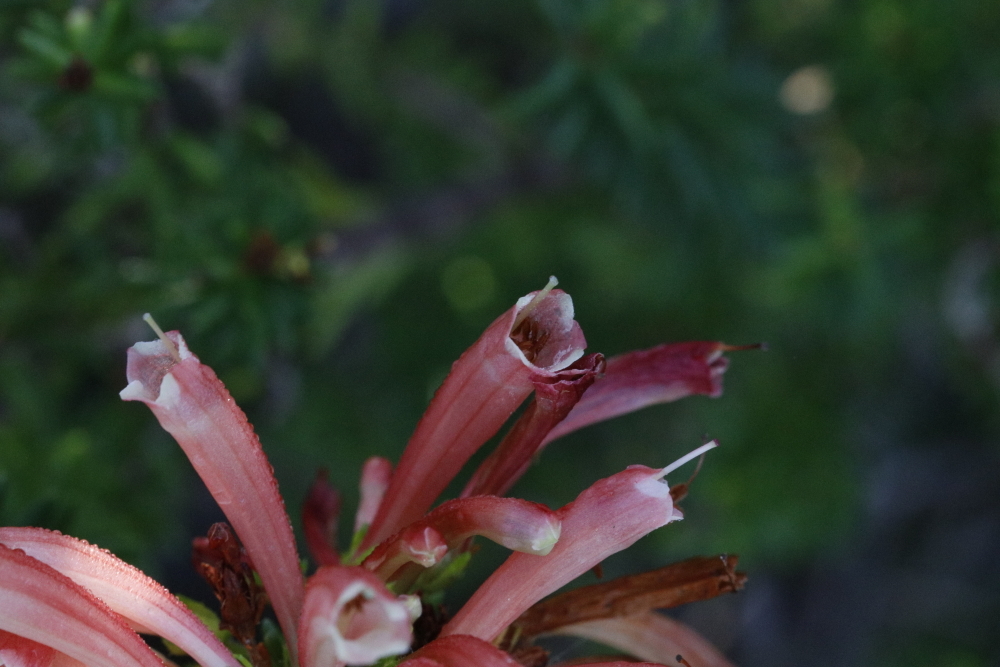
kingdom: Plantae
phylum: Tracheophyta
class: Magnoliopsida
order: Ericales
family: Ericaceae
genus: Erica
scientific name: Erica glandulosa
